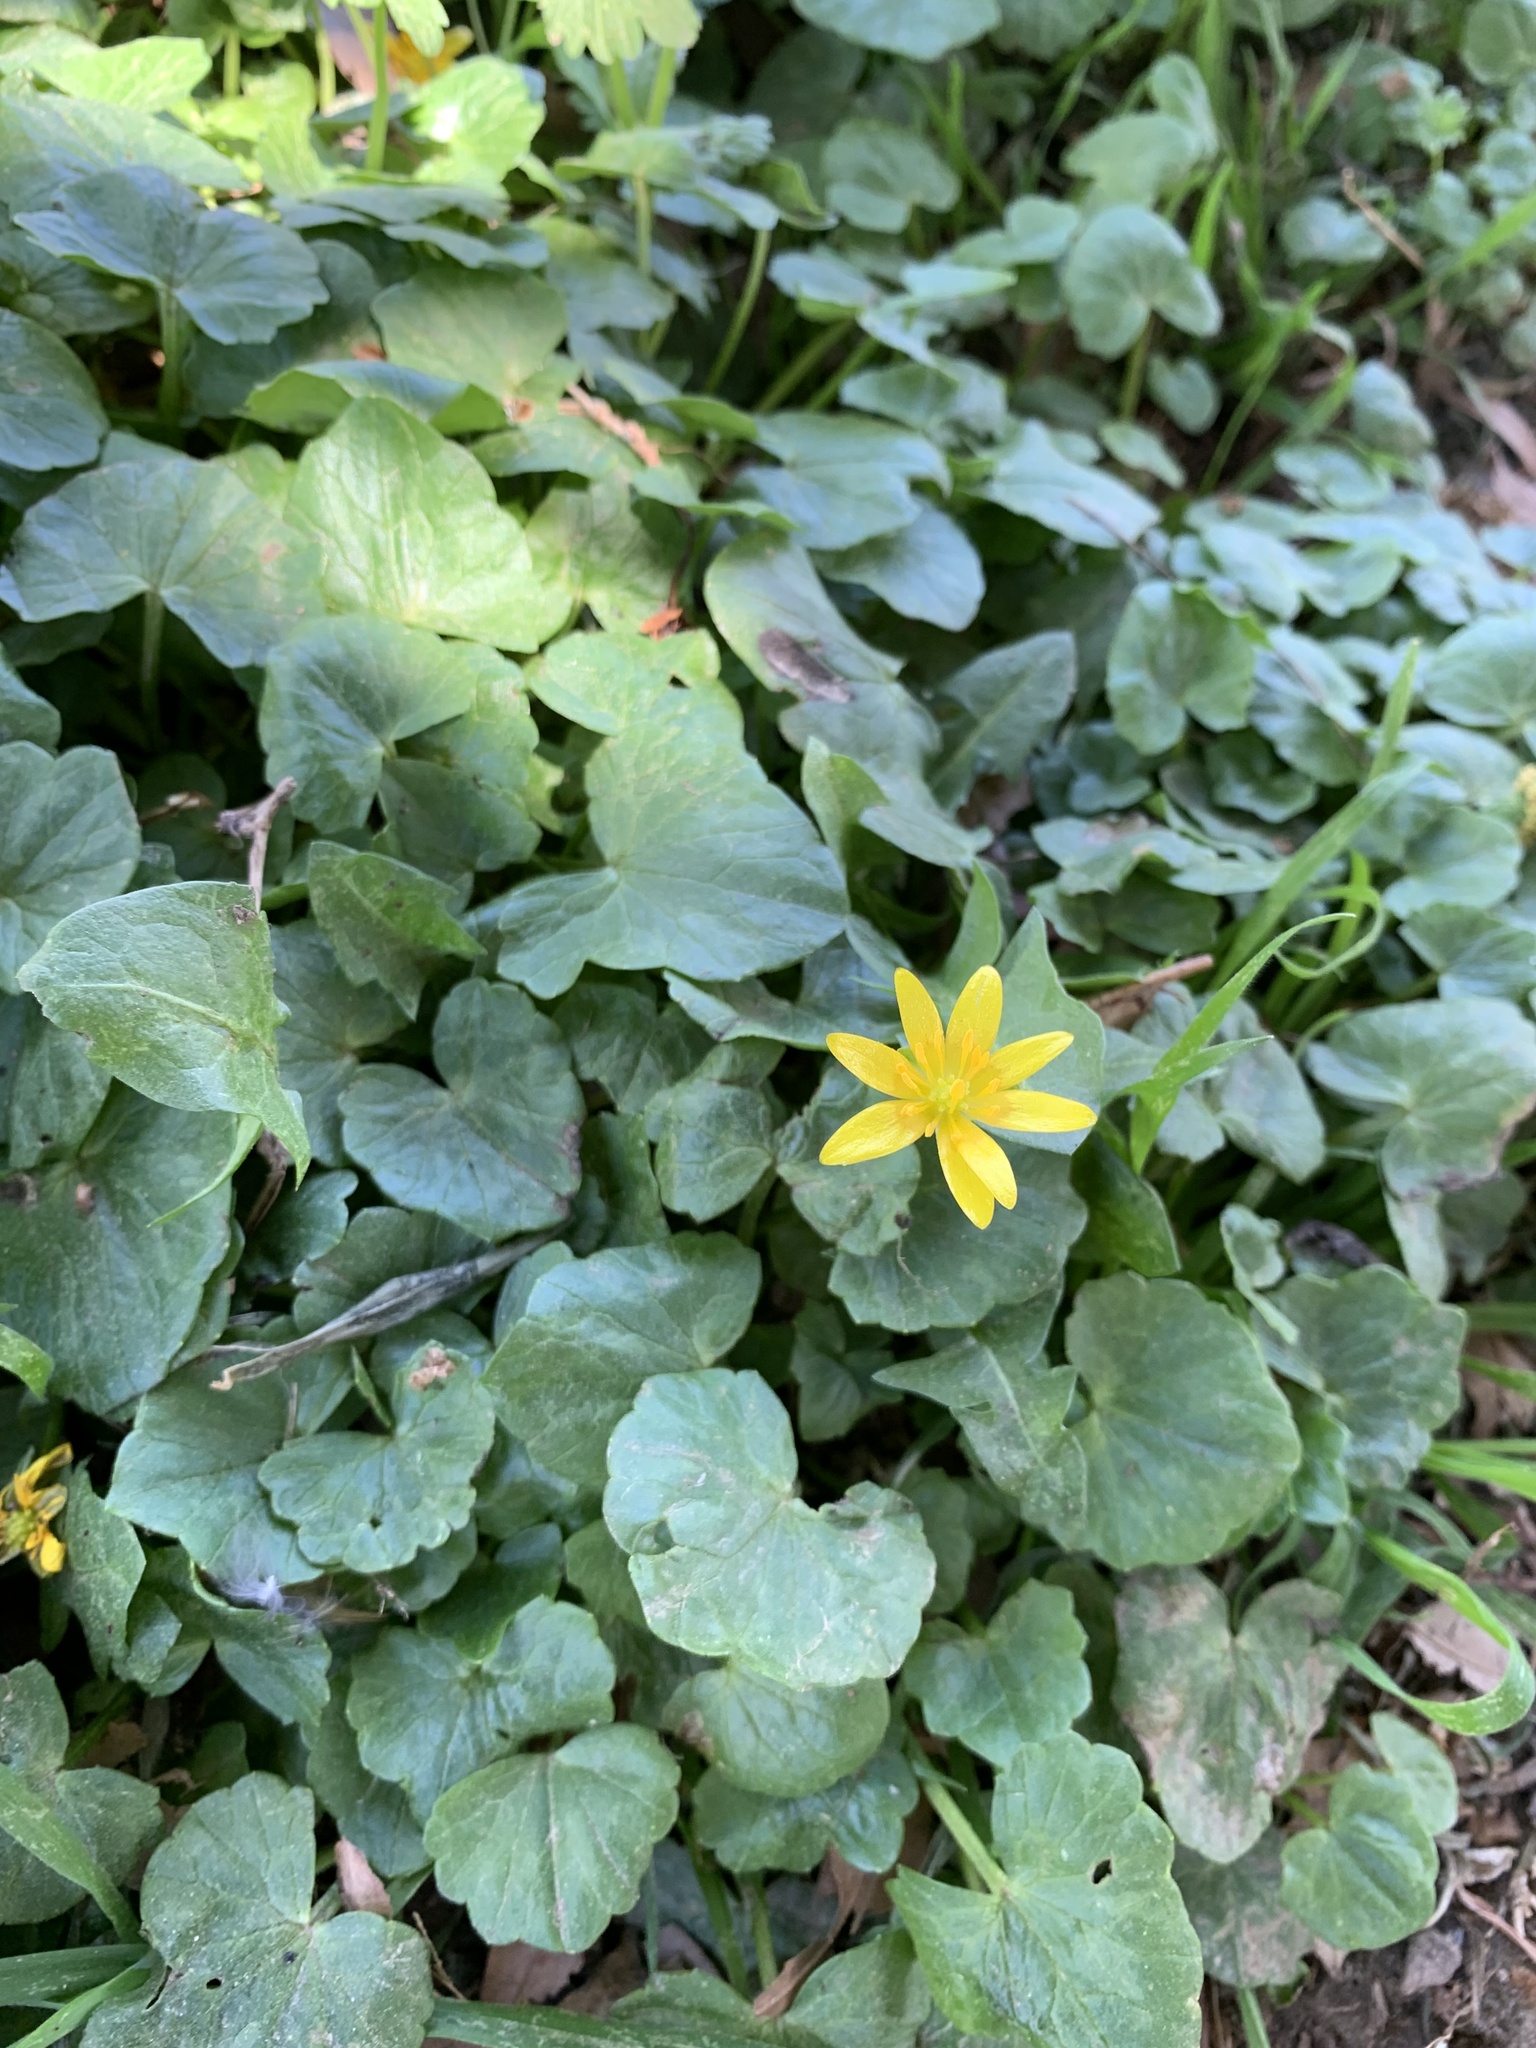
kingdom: Plantae
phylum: Tracheophyta
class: Magnoliopsida
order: Ranunculales
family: Ranunculaceae
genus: Ficaria
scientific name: Ficaria verna
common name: Lesser celandine
